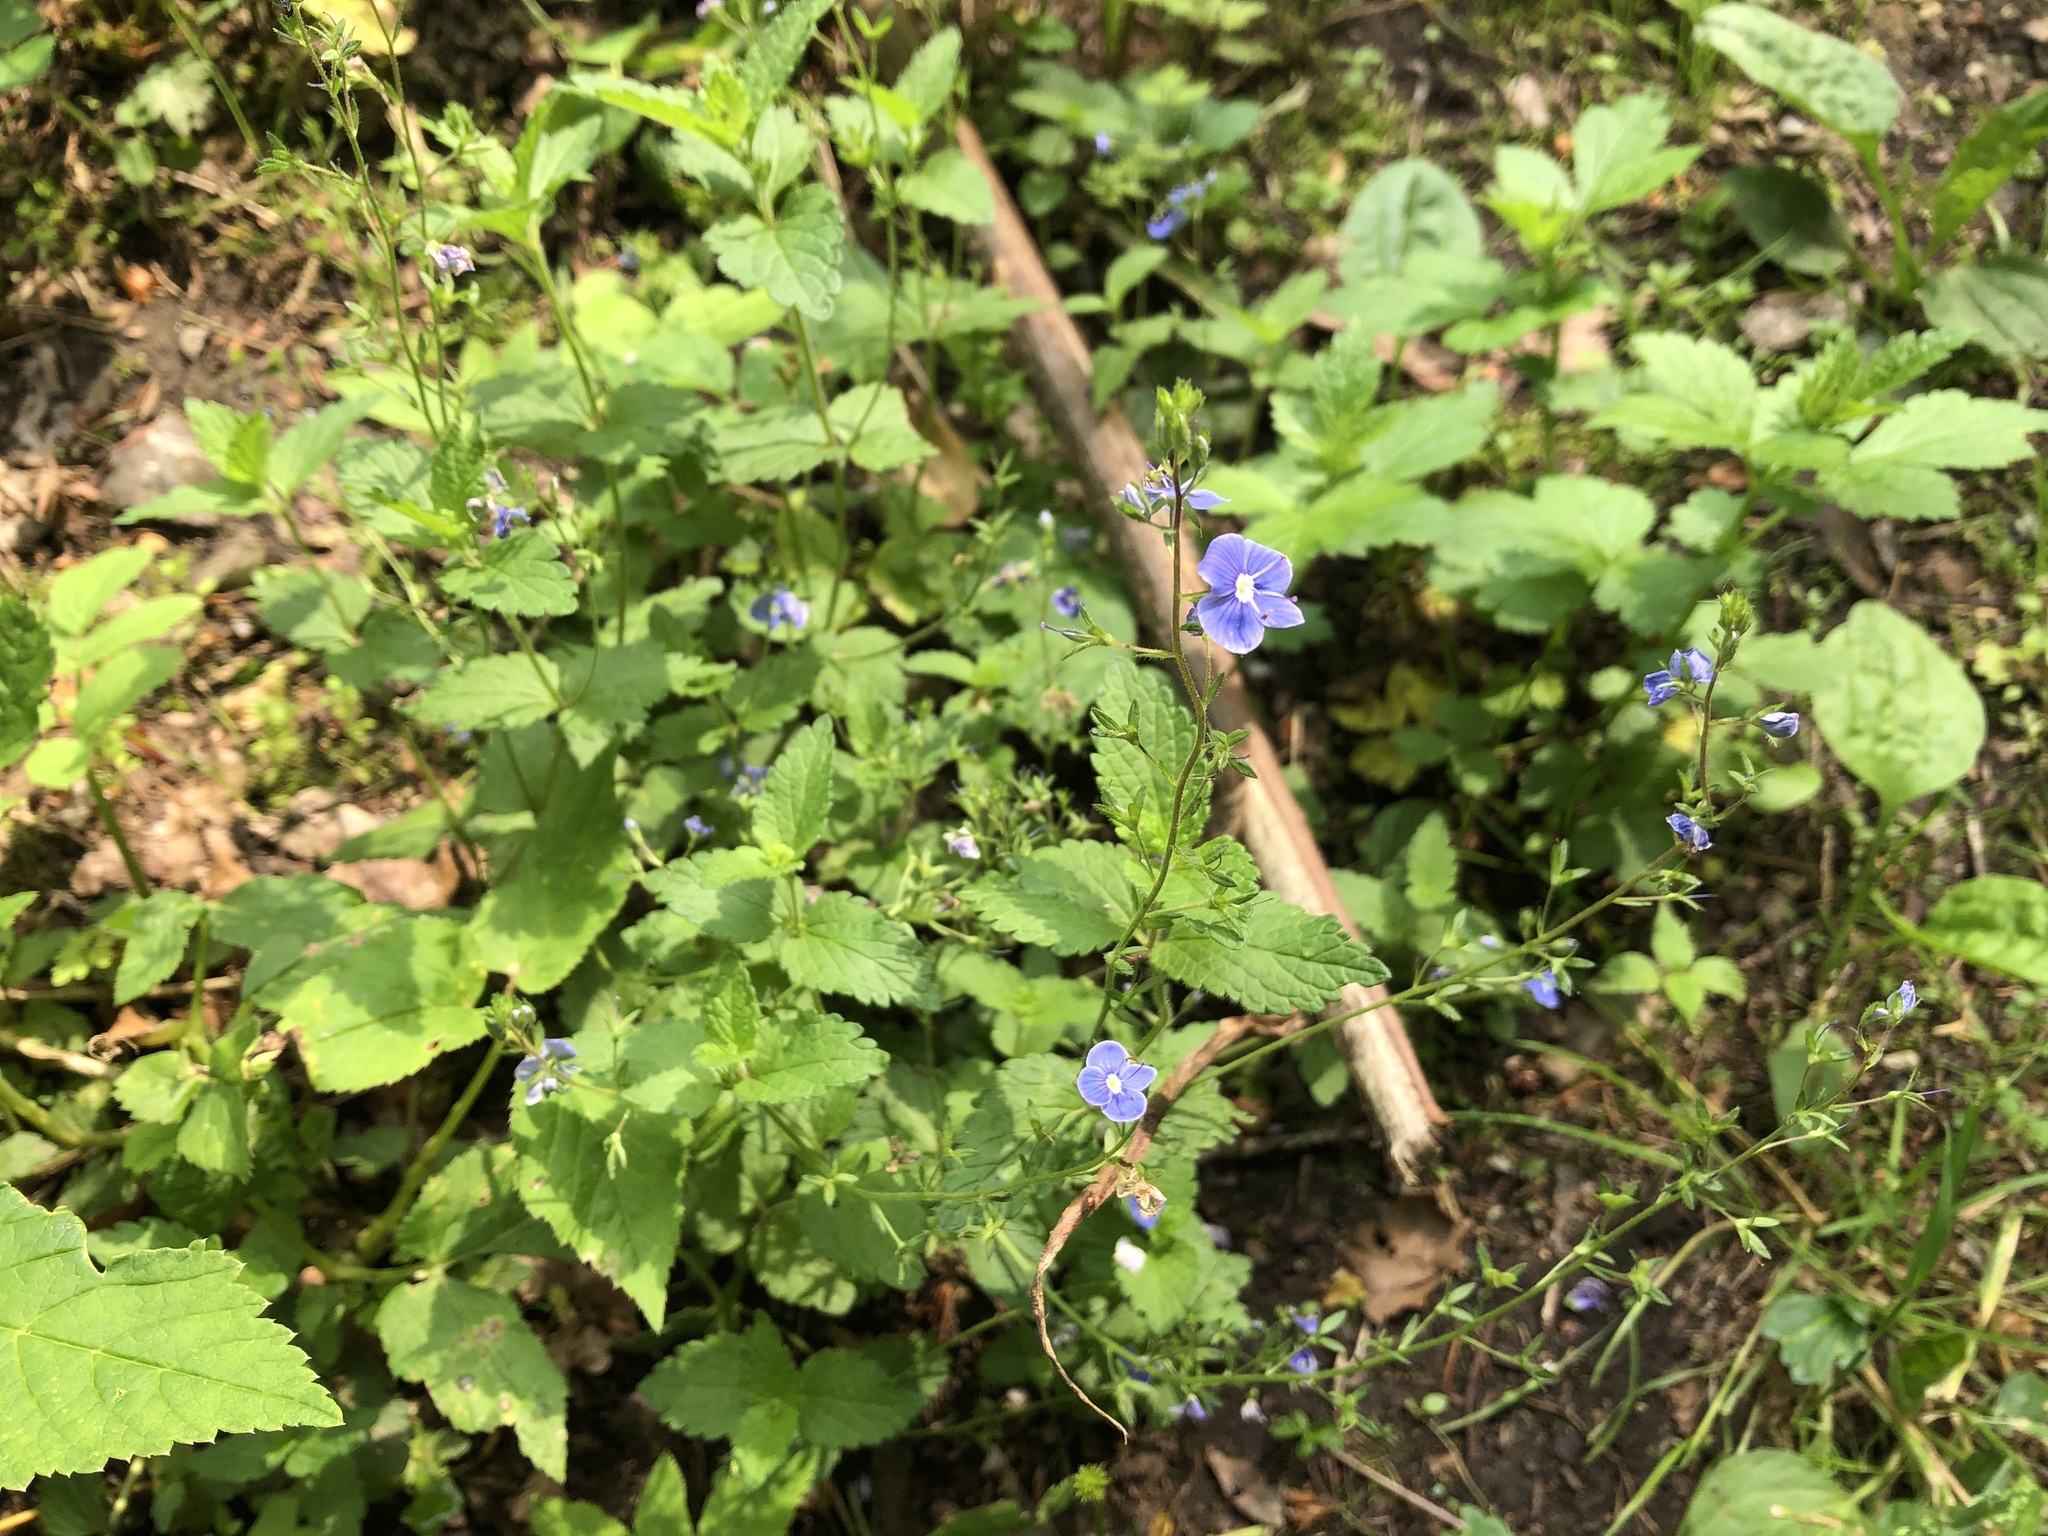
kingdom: Plantae
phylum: Tracheophyta
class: Magnoliopsida
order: Lamiales
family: Plantaginaceae
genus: Veronica
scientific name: Veronica chamaedrys
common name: Germander speedwell
